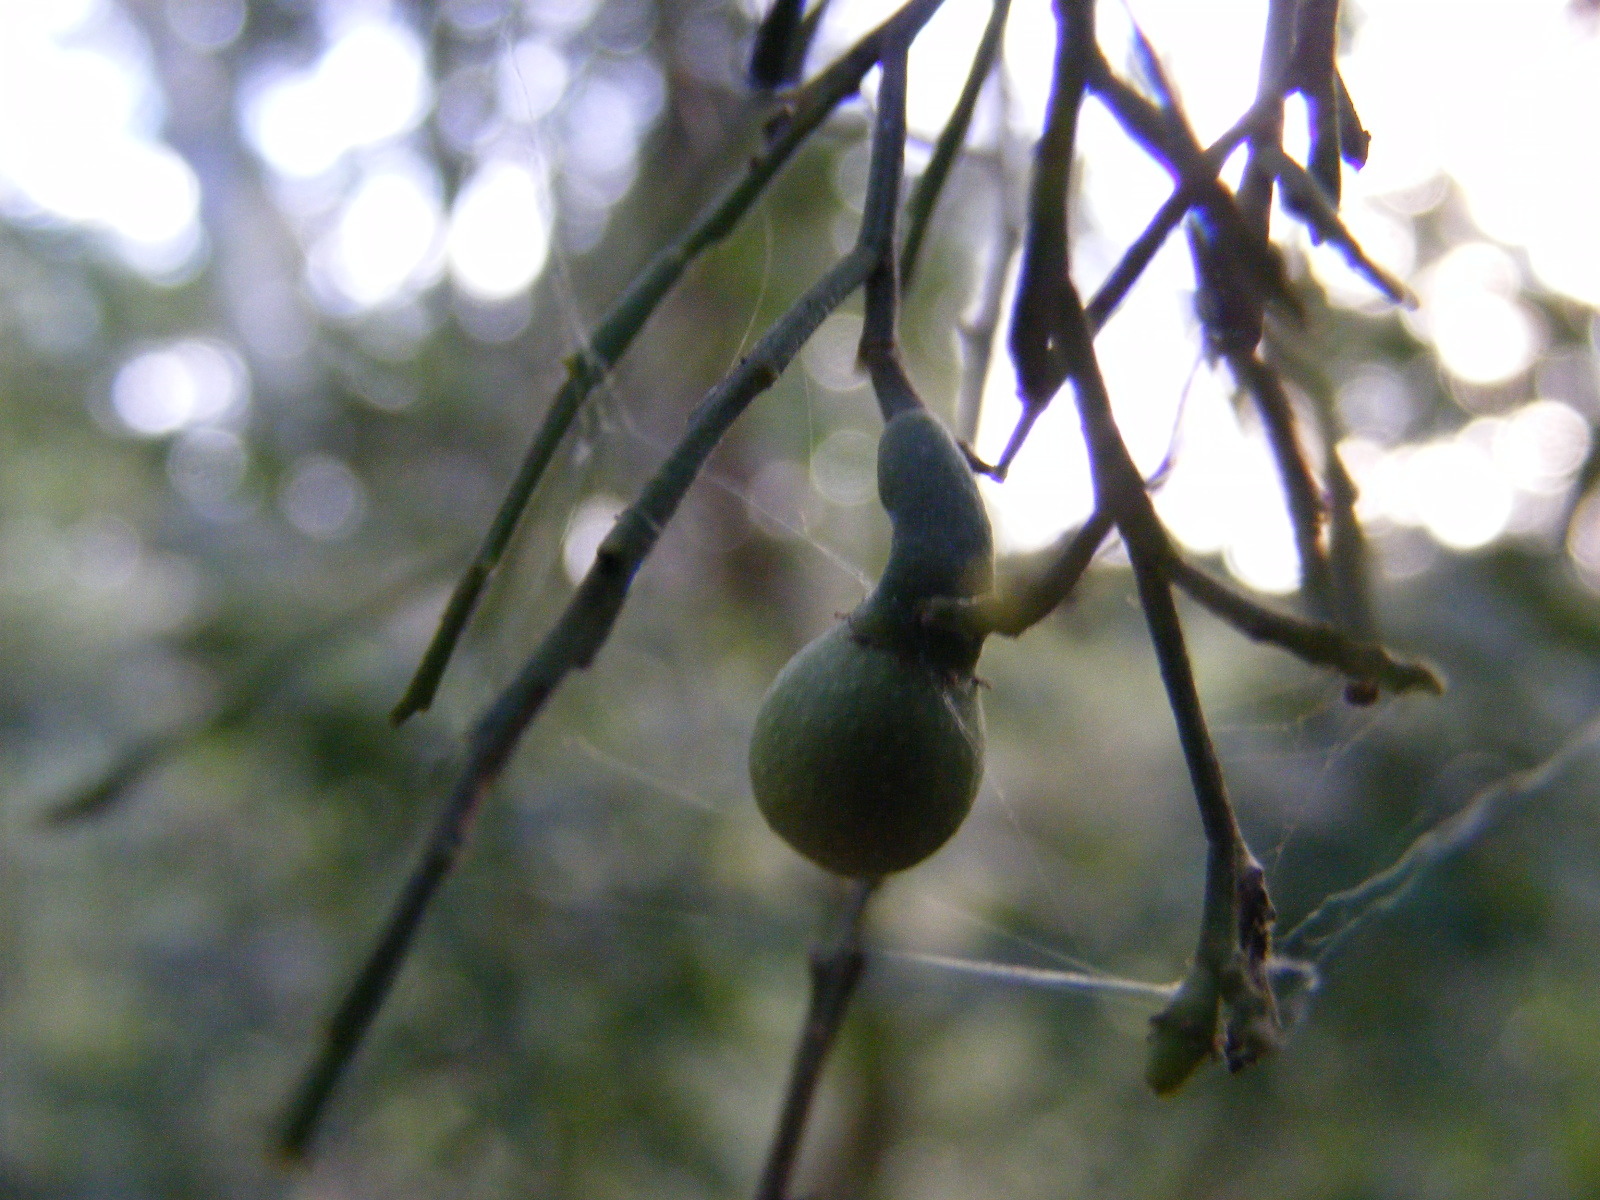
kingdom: Plantae
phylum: Tracheophyta
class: Magnoliopsida
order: Santalales
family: Santalaceae
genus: Exocarpos
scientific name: Exocarpos cupressiformis
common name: Cherry ballart
